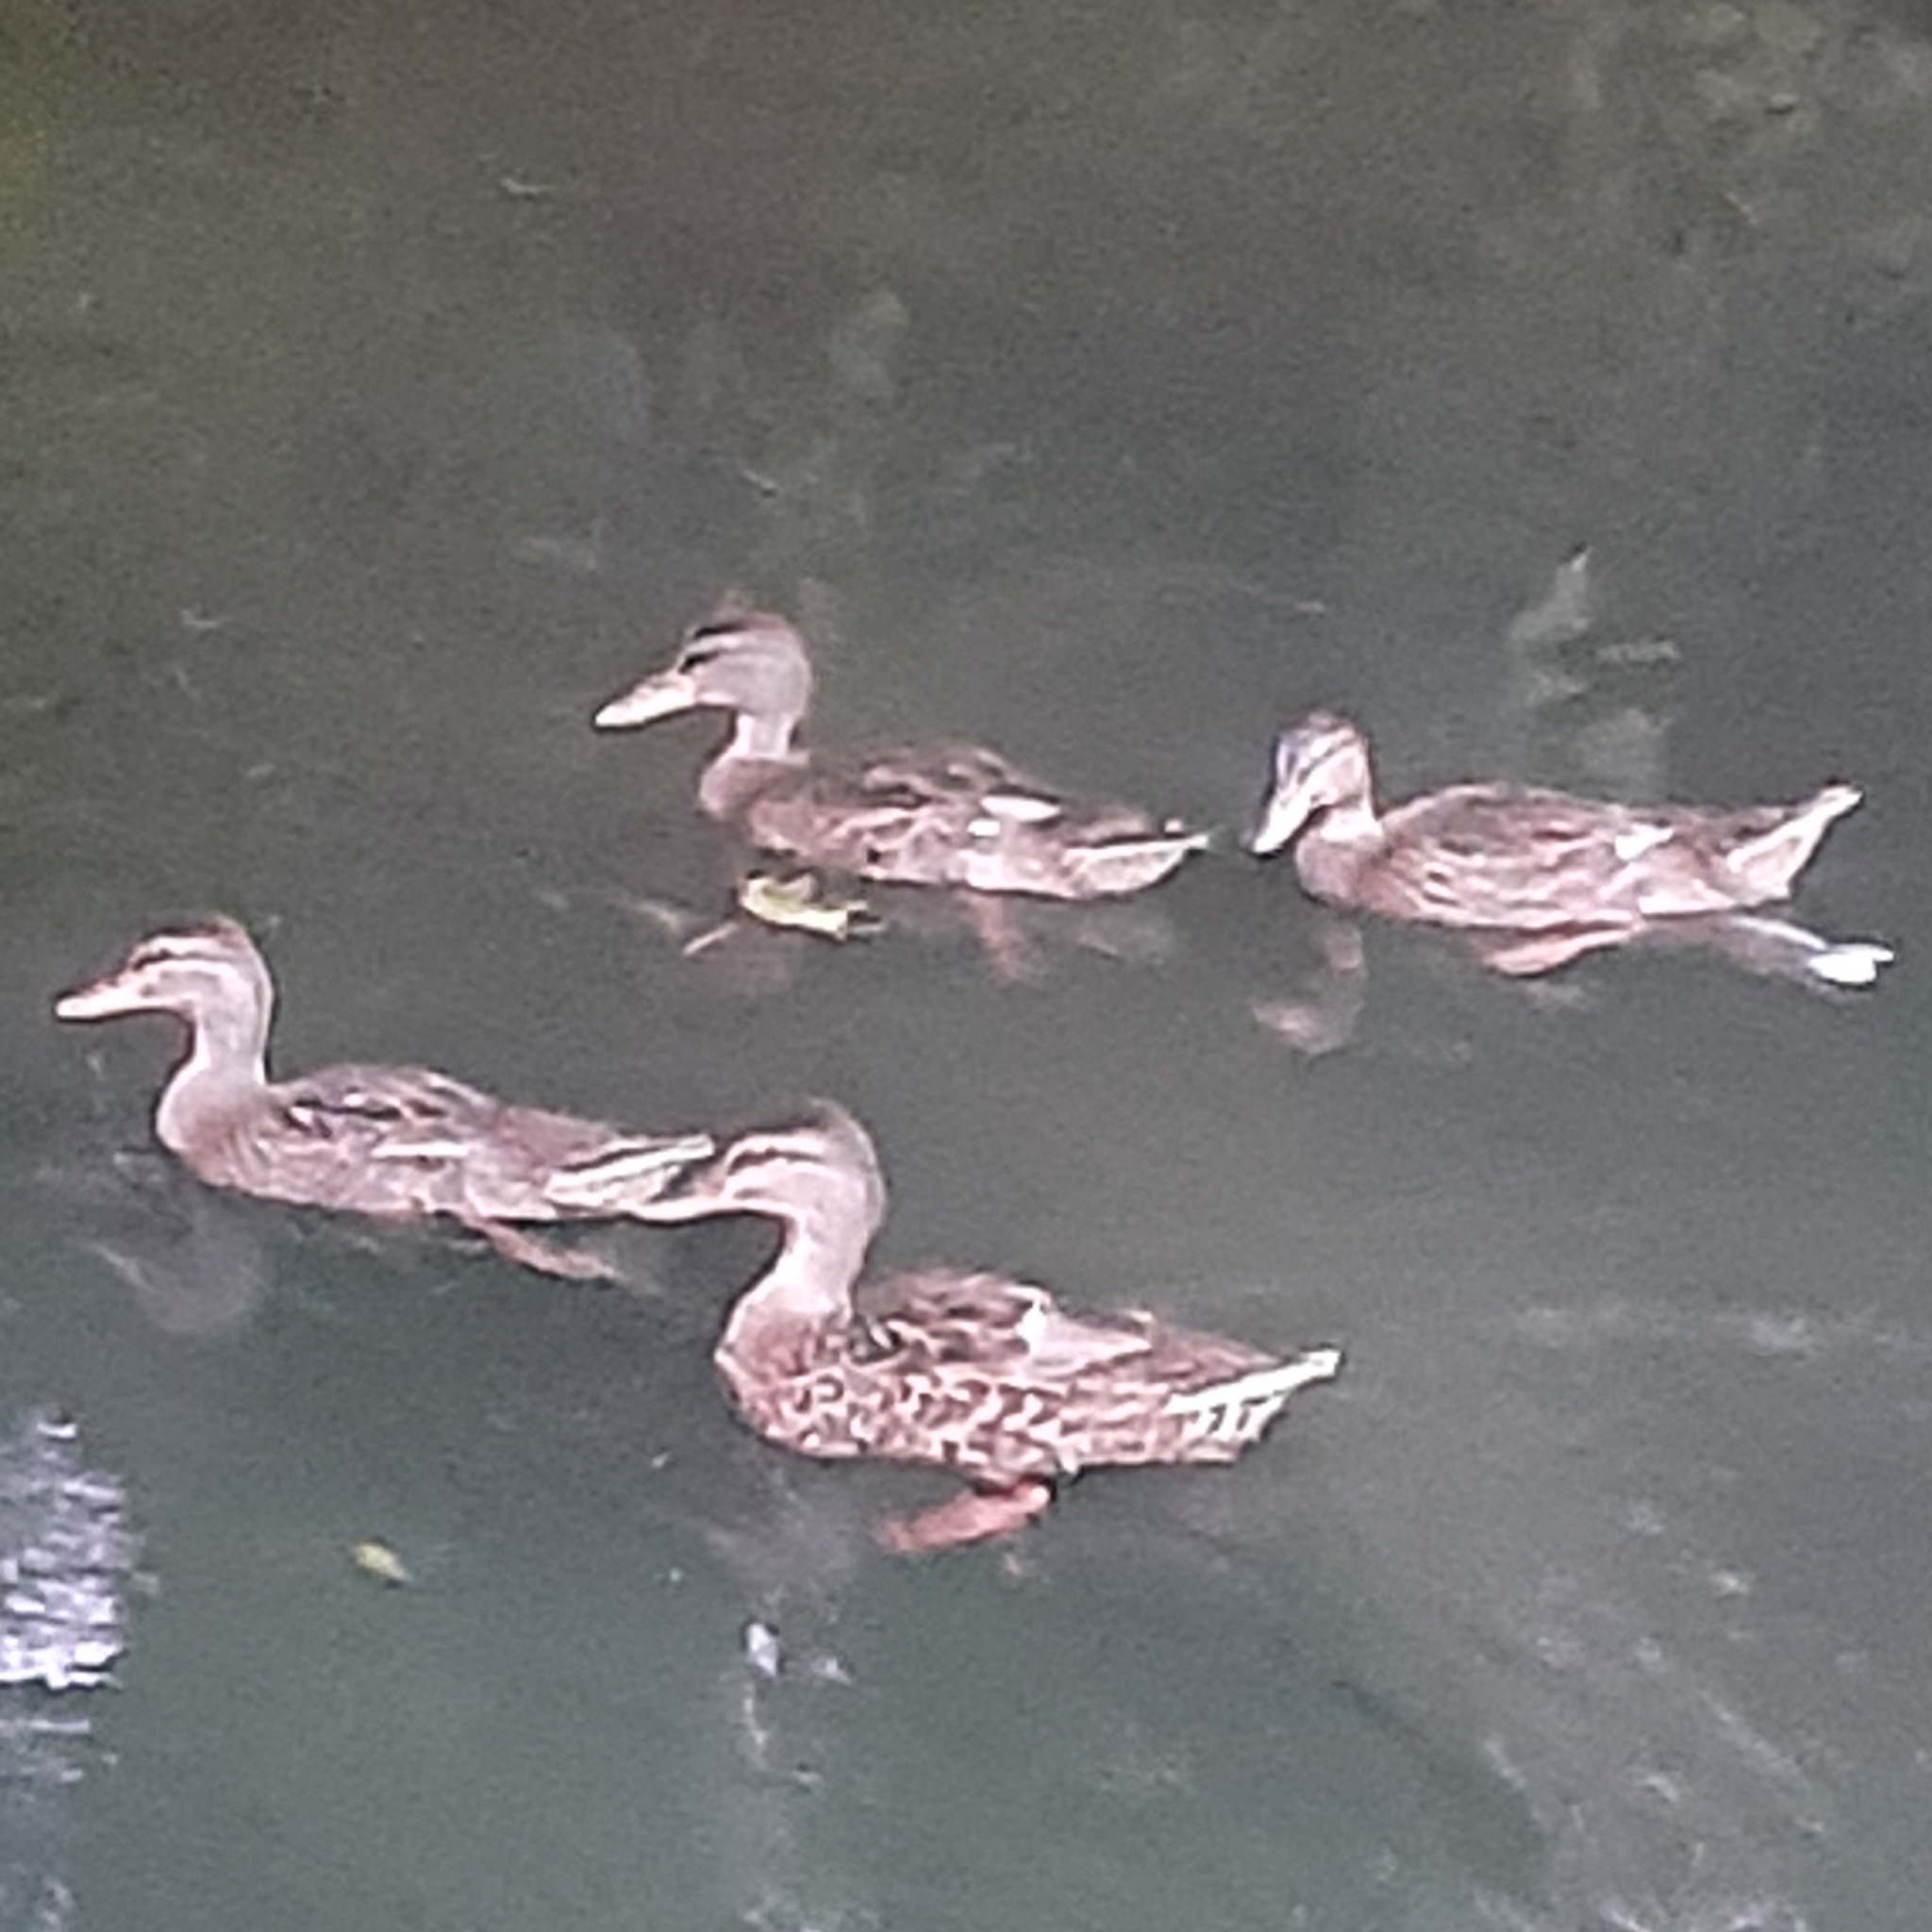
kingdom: Animalia
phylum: Chordata
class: Aves
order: Anseriformes
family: Anatidae
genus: Anas
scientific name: Anas platyrhynchos
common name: Mallard
